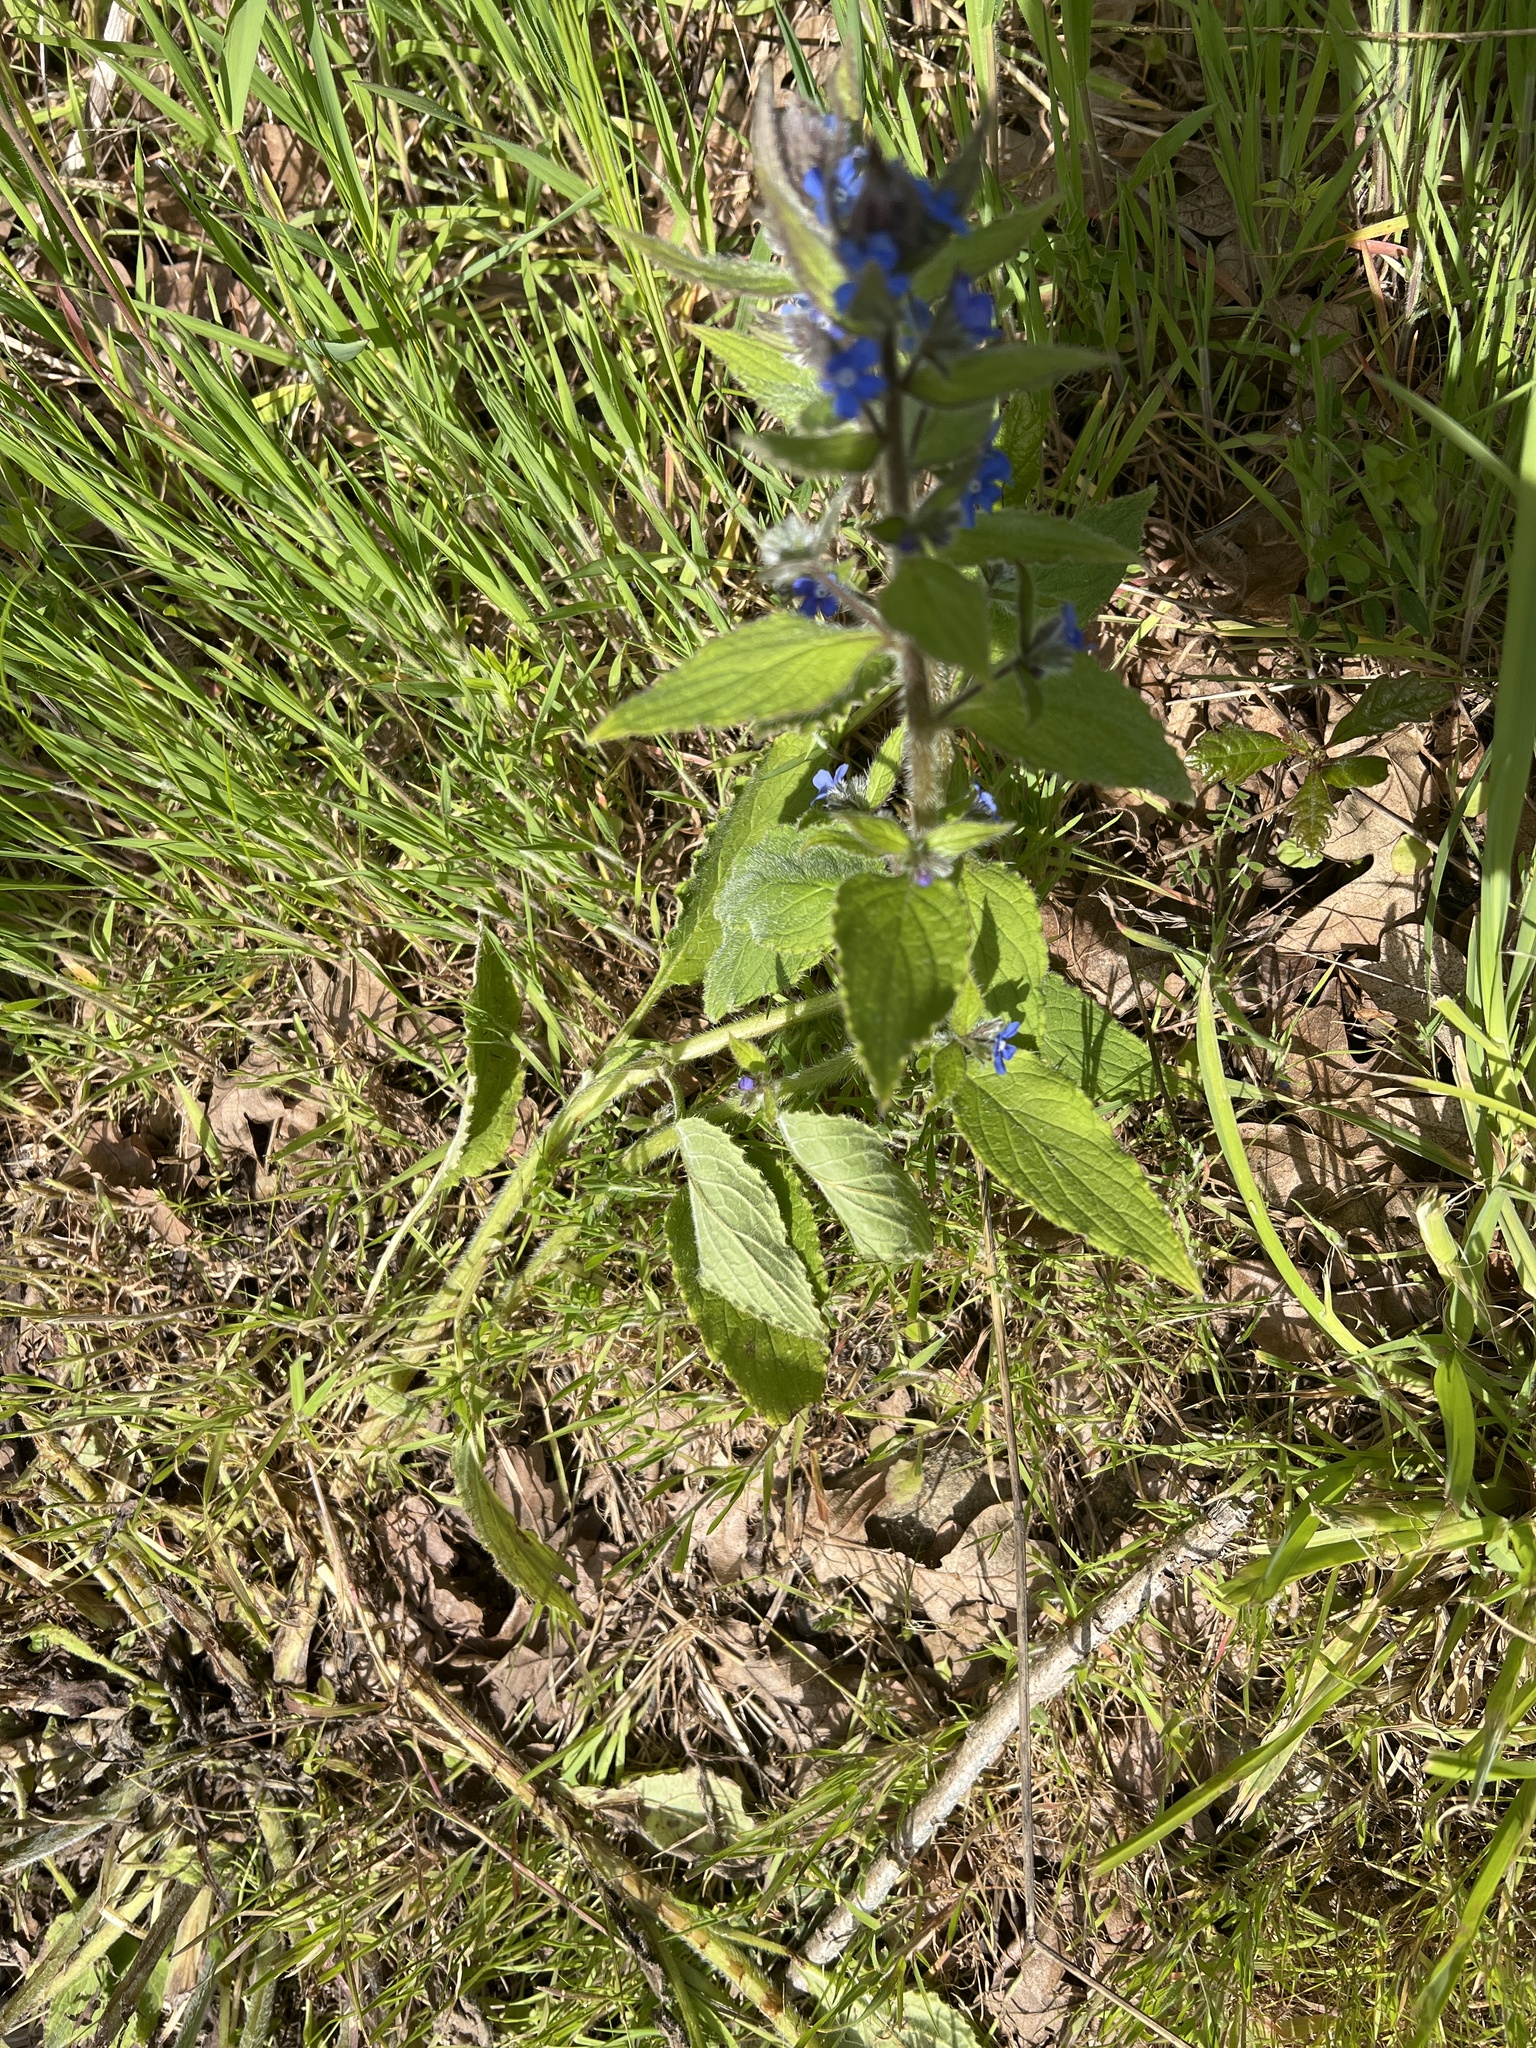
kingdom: Plantae
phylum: Tracheophyta
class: Magnoliopsida
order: Boraginales
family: Boraginaceae
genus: Pentaglottis
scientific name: Pentaglottis sempervirens
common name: Green alkanet
